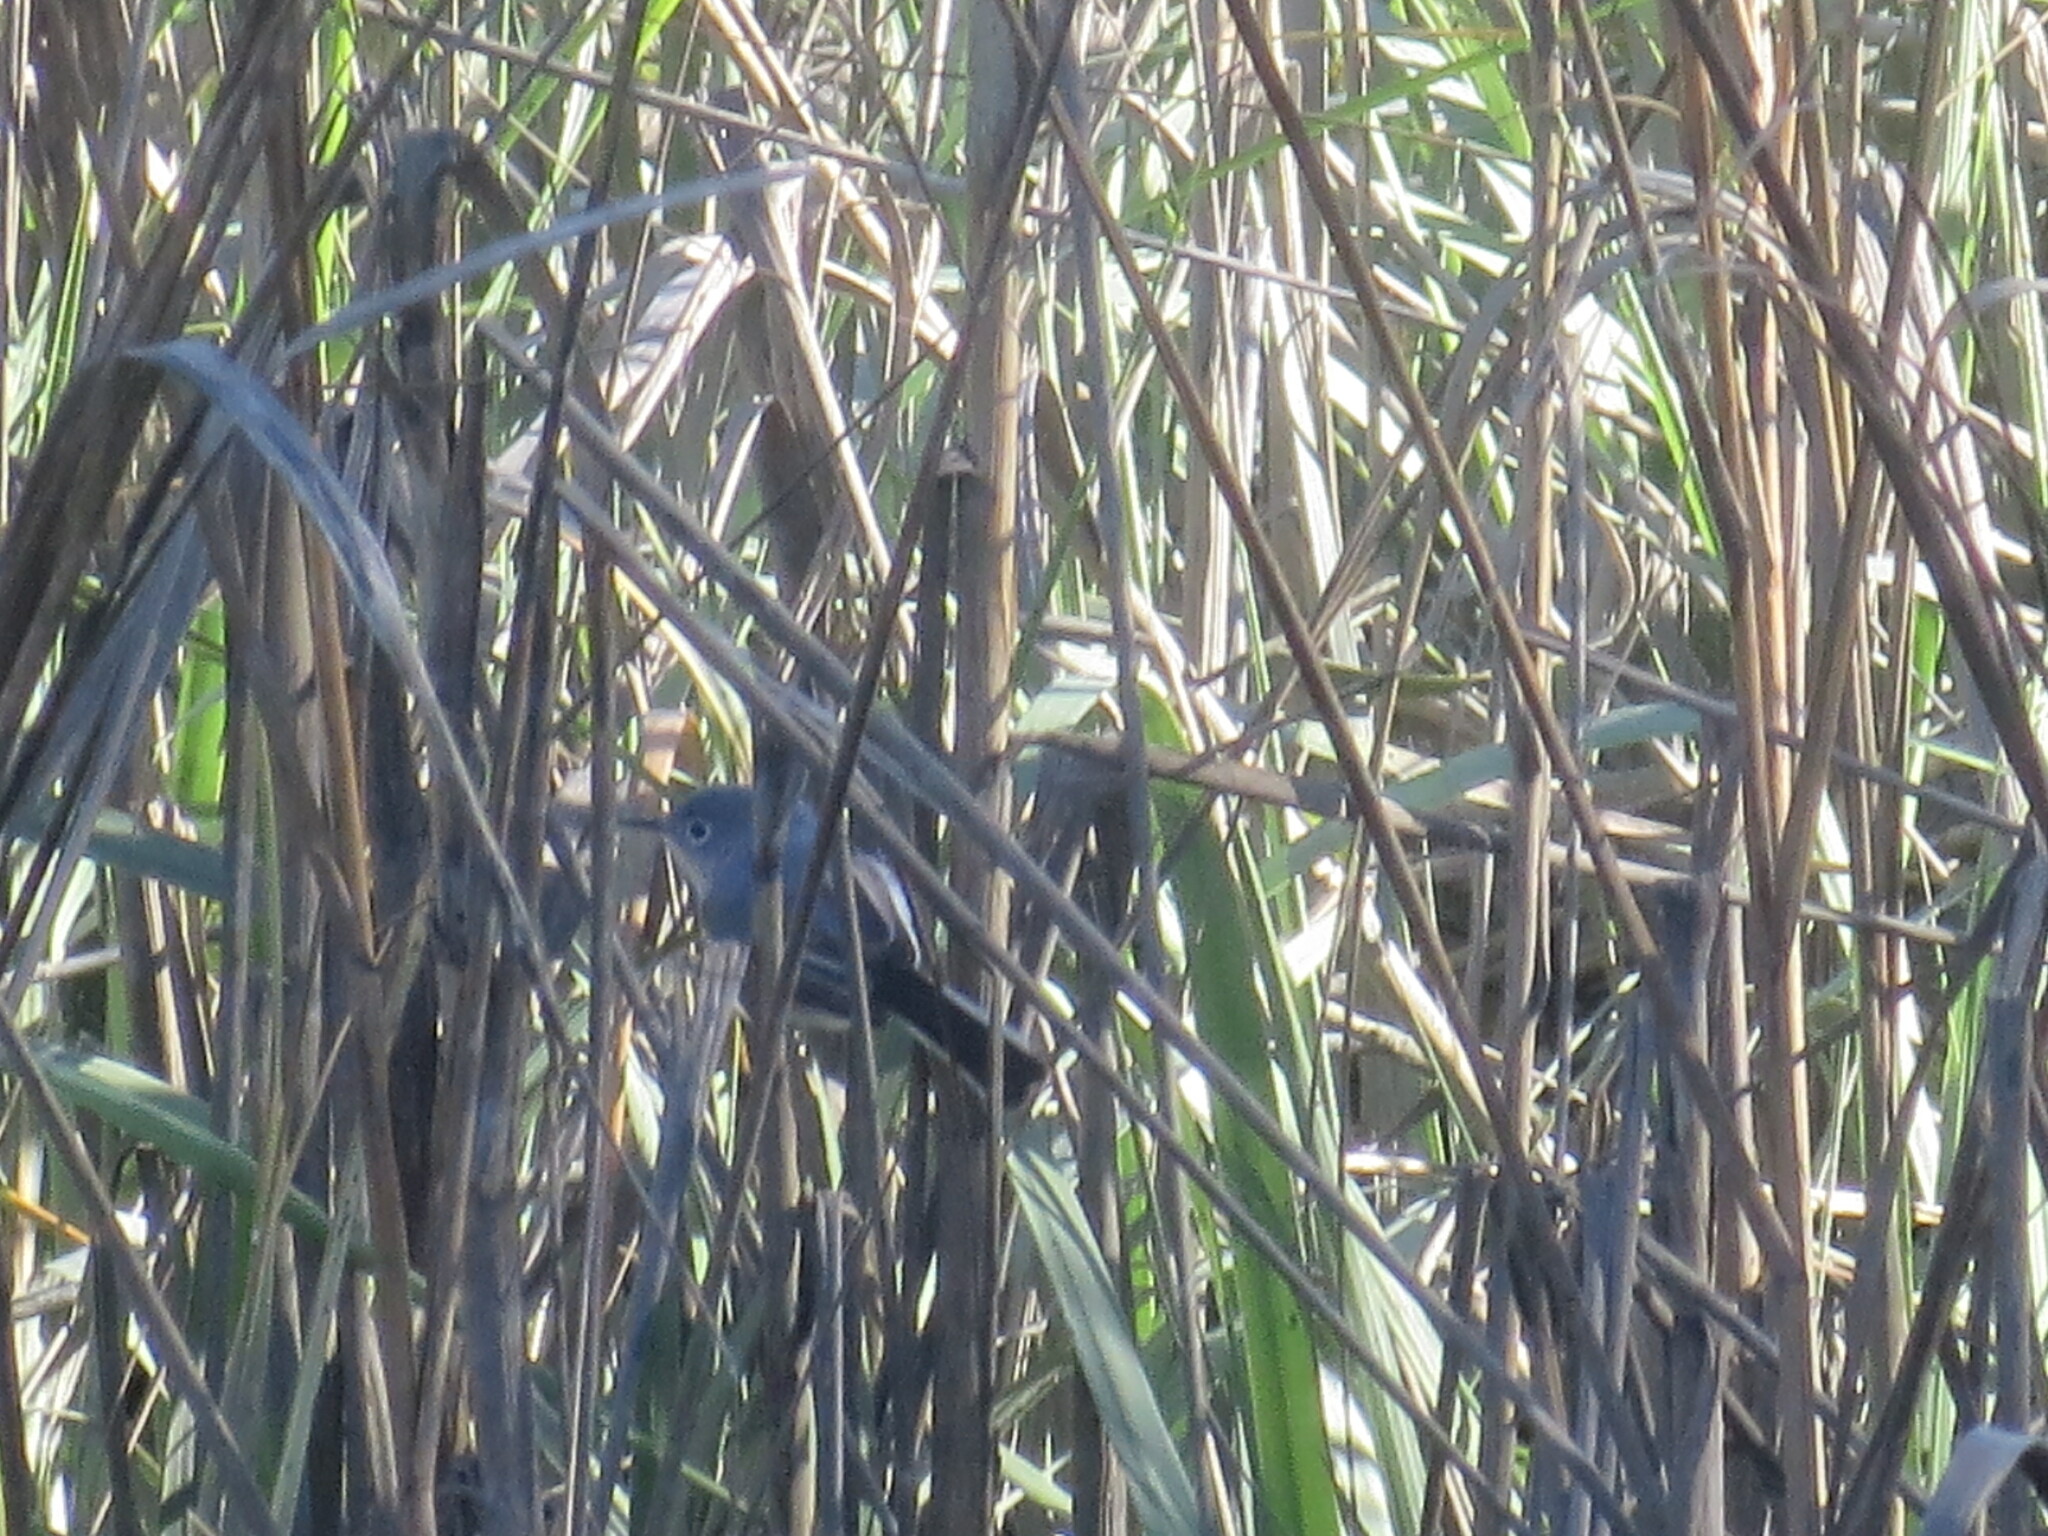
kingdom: Animalia
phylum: Chordata
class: Aves
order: Passeriformes
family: Polioptilidae
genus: Polioptila
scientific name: Polioptila caerulea
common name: Blue-gray gnatcatcher
